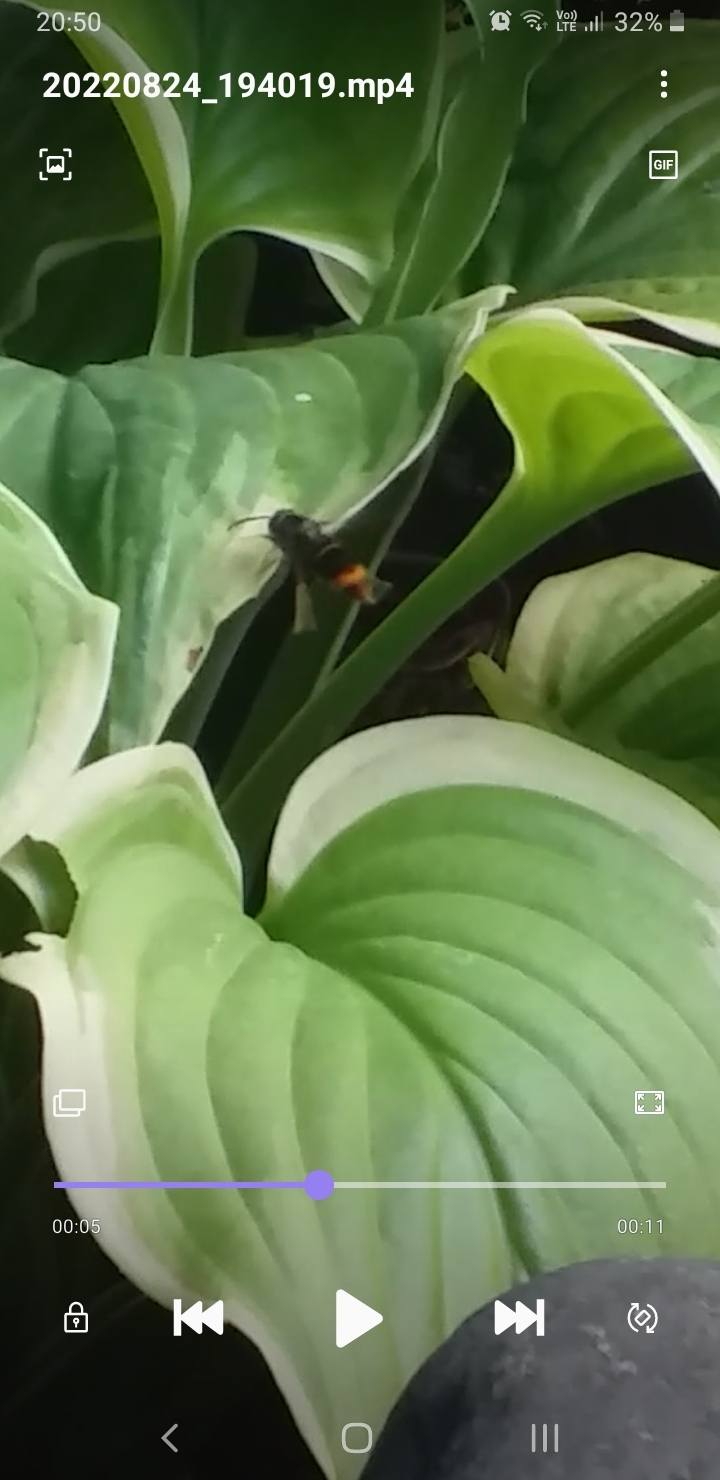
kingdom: Animalia
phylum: Arthropoda
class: Insecta
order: Hymenoptera
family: Vespidae
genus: Vespa
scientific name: Vespa velutina
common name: Asian hornet
